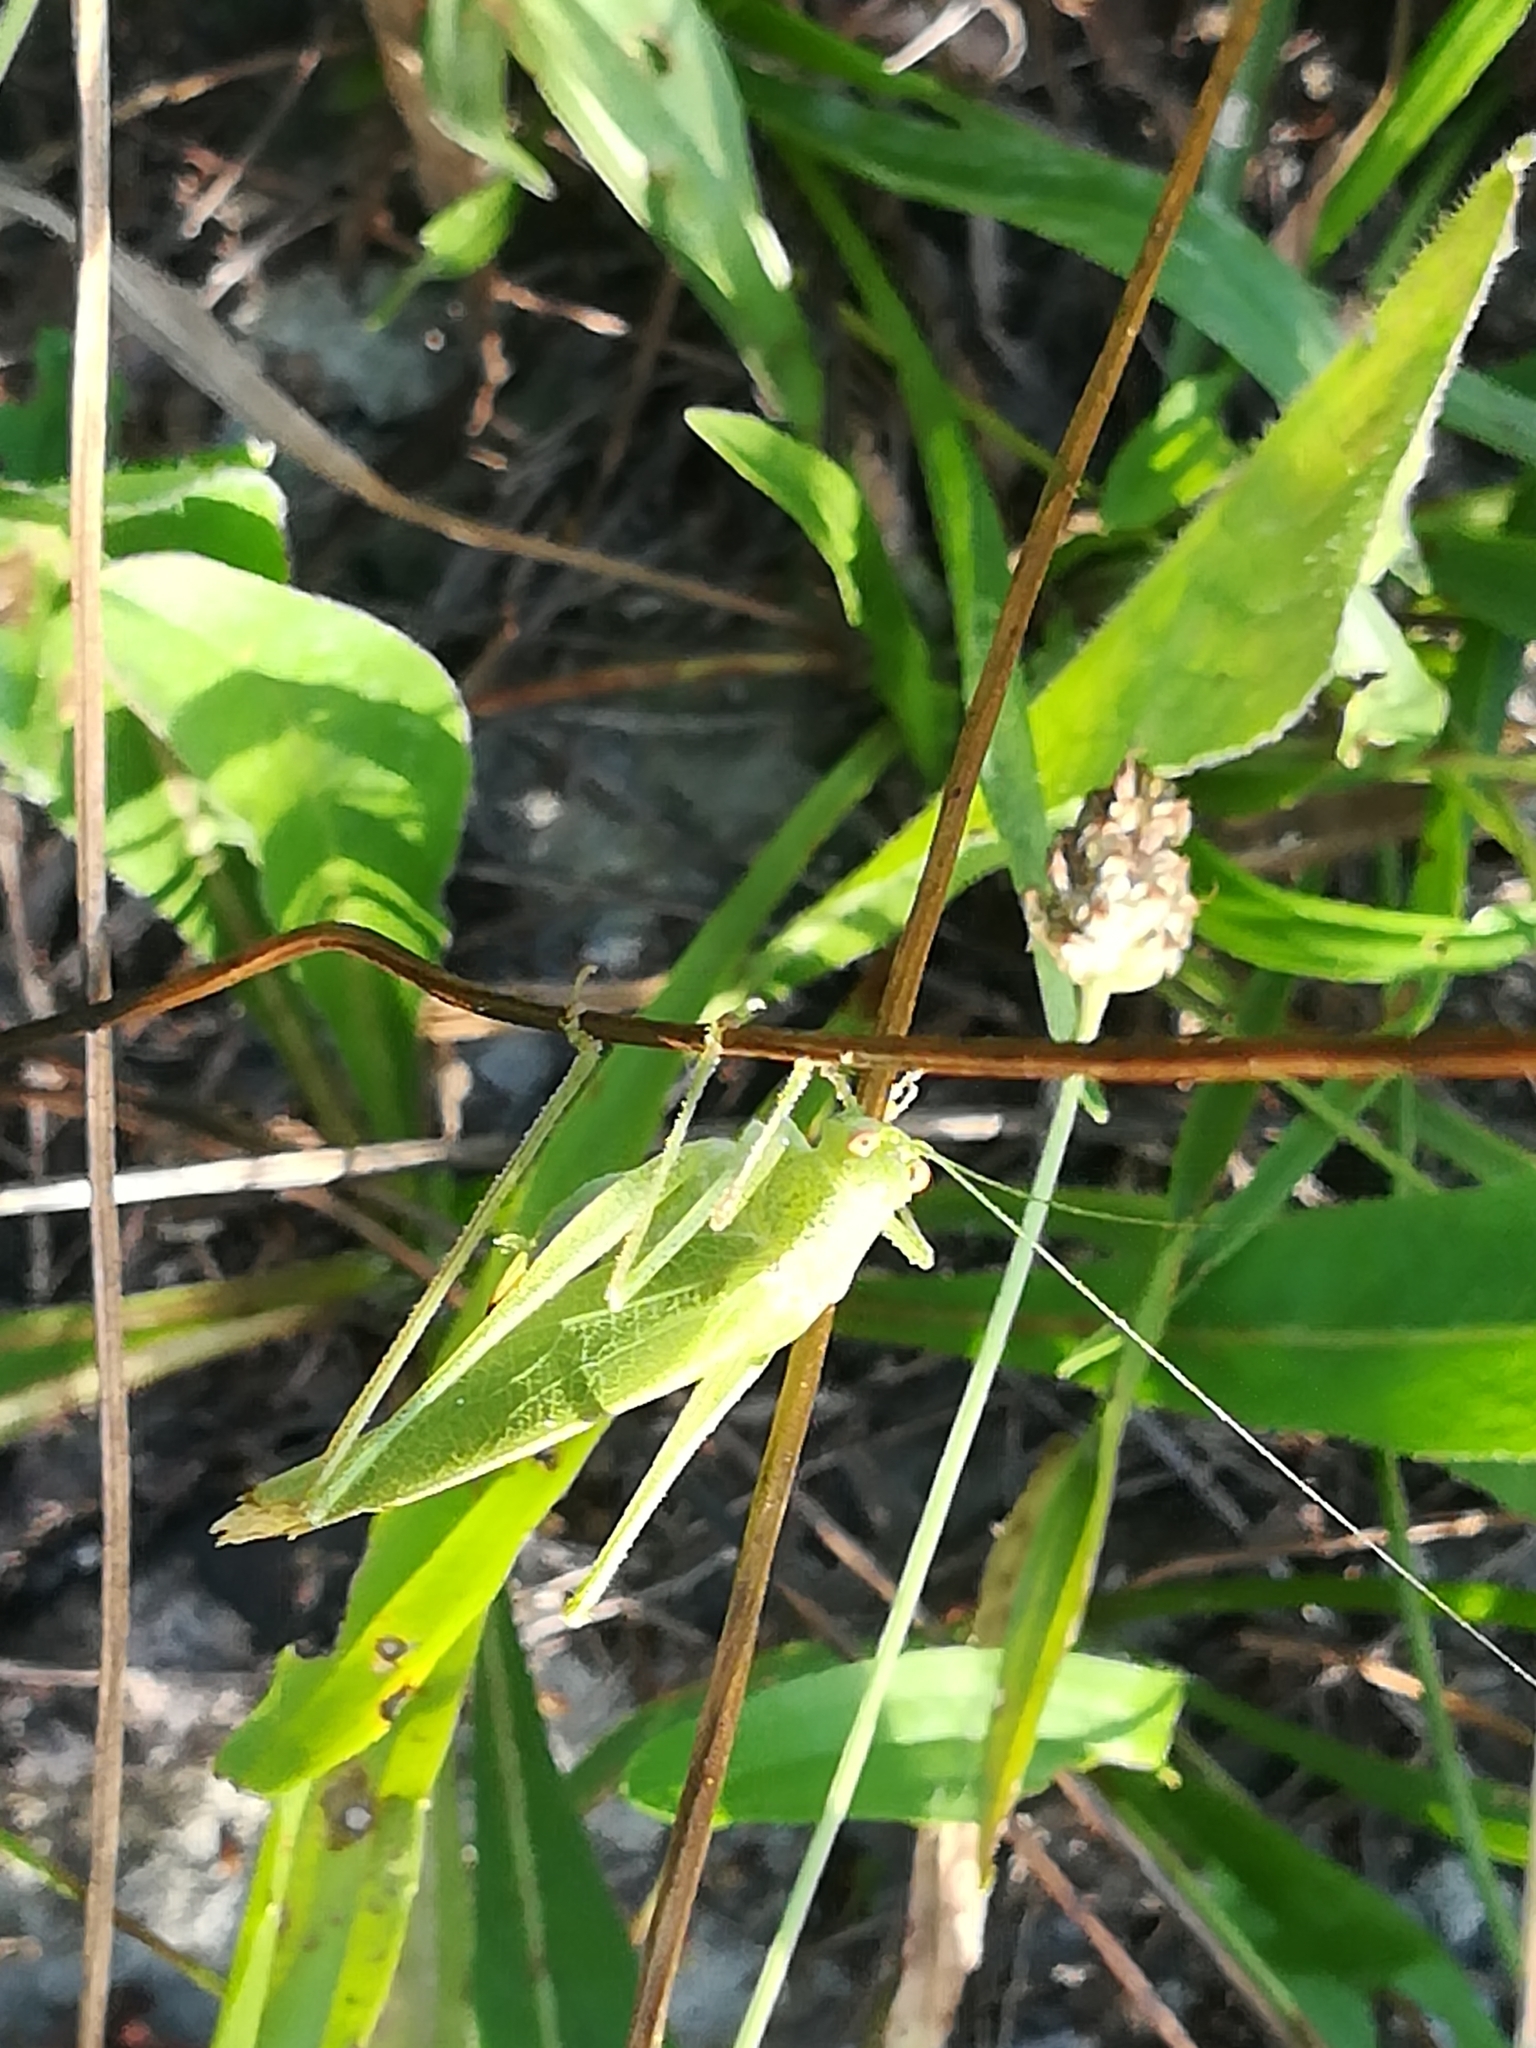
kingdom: Animalia
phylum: Arthropoda
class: Insecta
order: Orthoptera
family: Tettigoniidae
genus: Phaneroptera
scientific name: Phaneroptera nana
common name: Southern sickle bush-cricket
